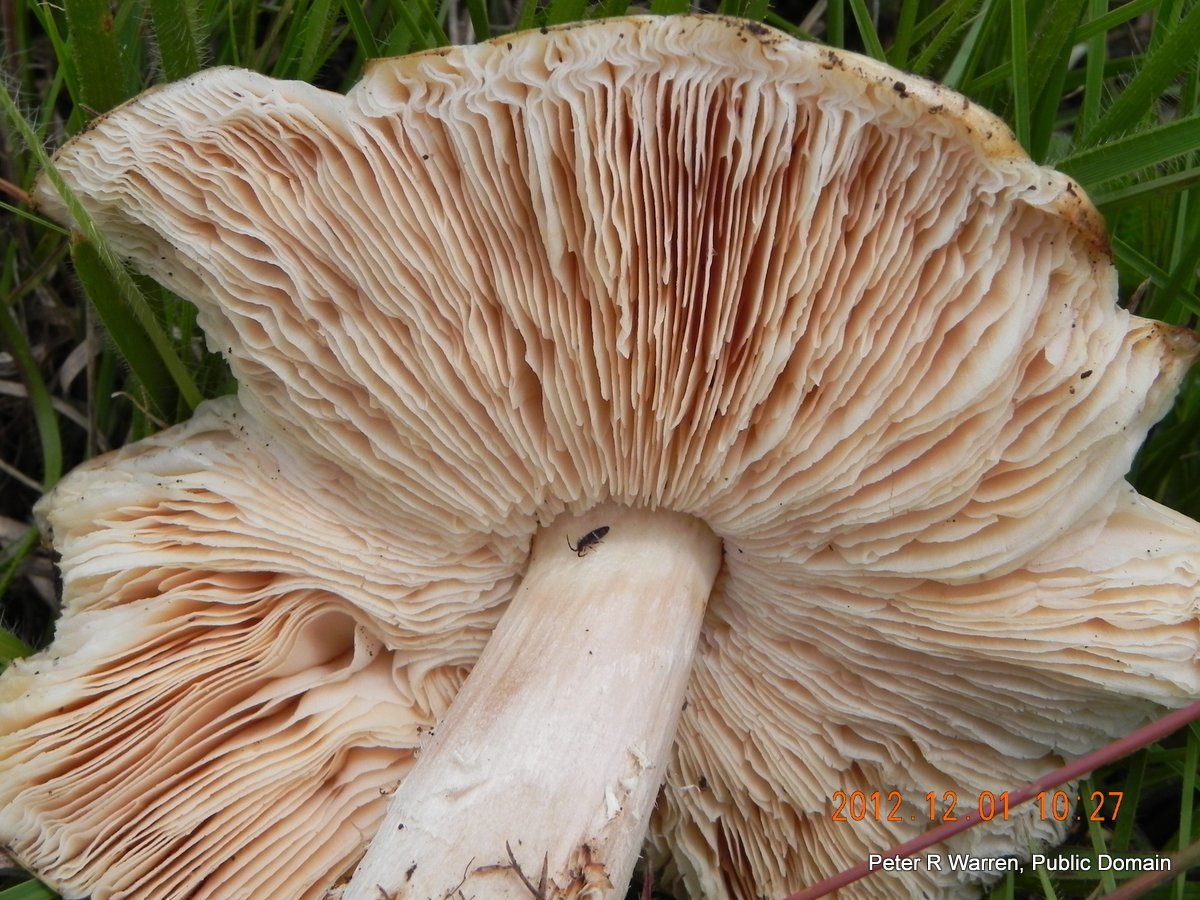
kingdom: Fungi
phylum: Basidiomycota
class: Agaricomycetes
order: Agaricales
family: Lyophyllaceae
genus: Termitomyces
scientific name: Termitomyces umkowaan
